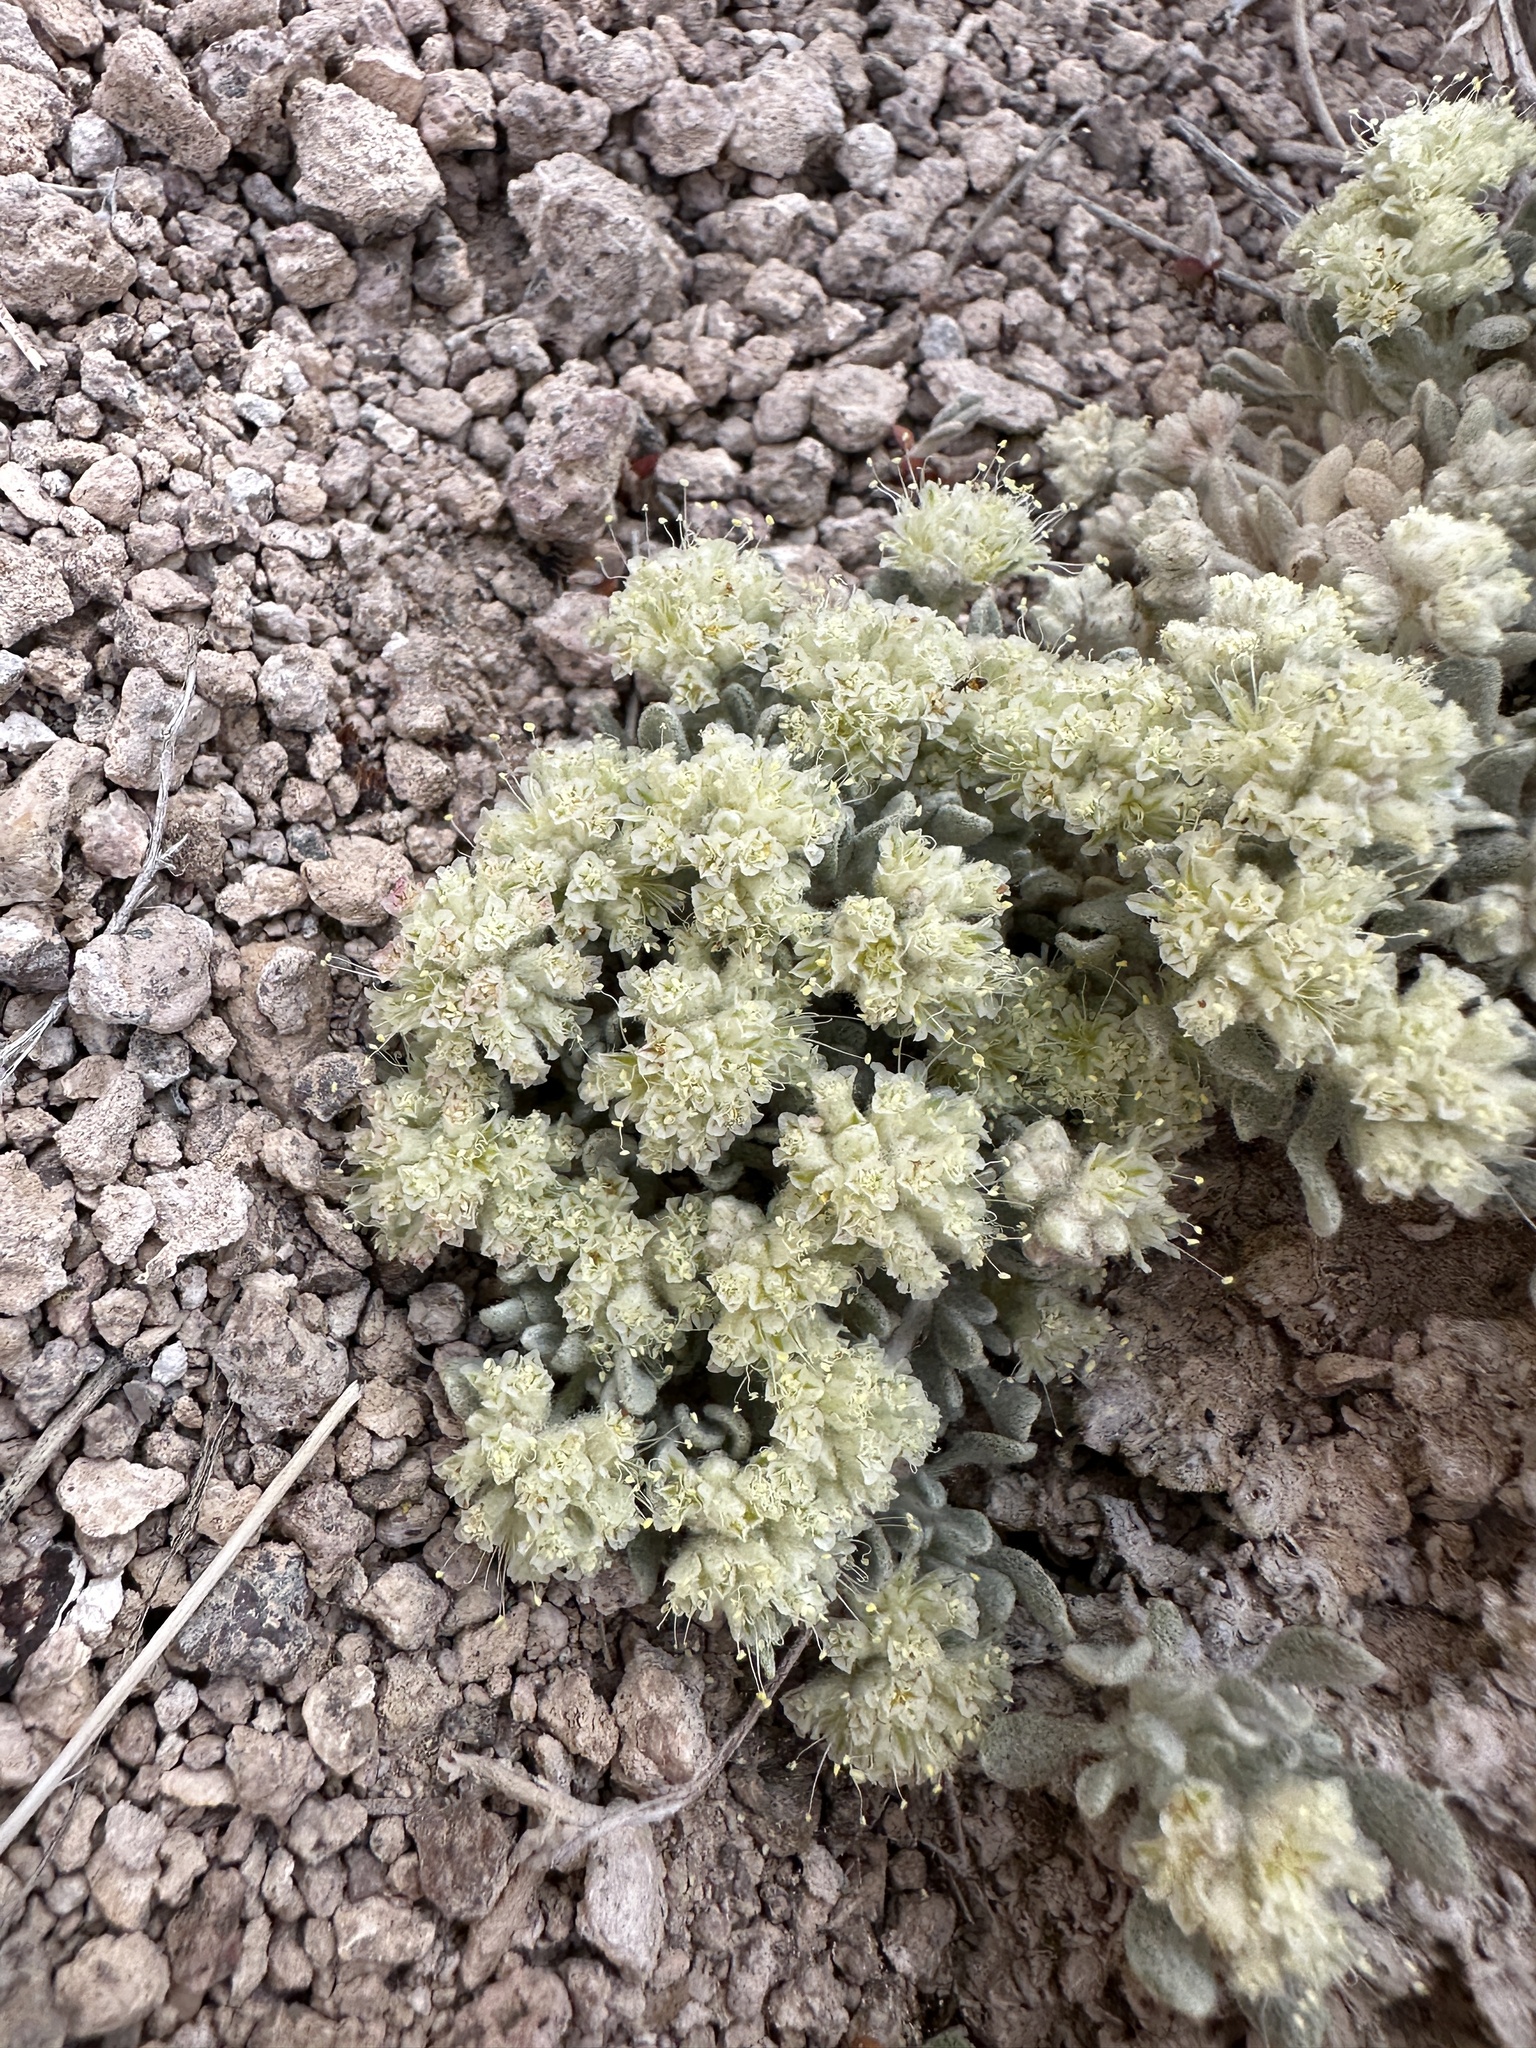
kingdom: Plantae
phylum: Tracheophyta
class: Magnoliopsida
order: Caryophyllales
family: Polygonaceae
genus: Eriogonum
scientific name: Eriogonum shockleyi
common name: Shockley's wild buckwheat
